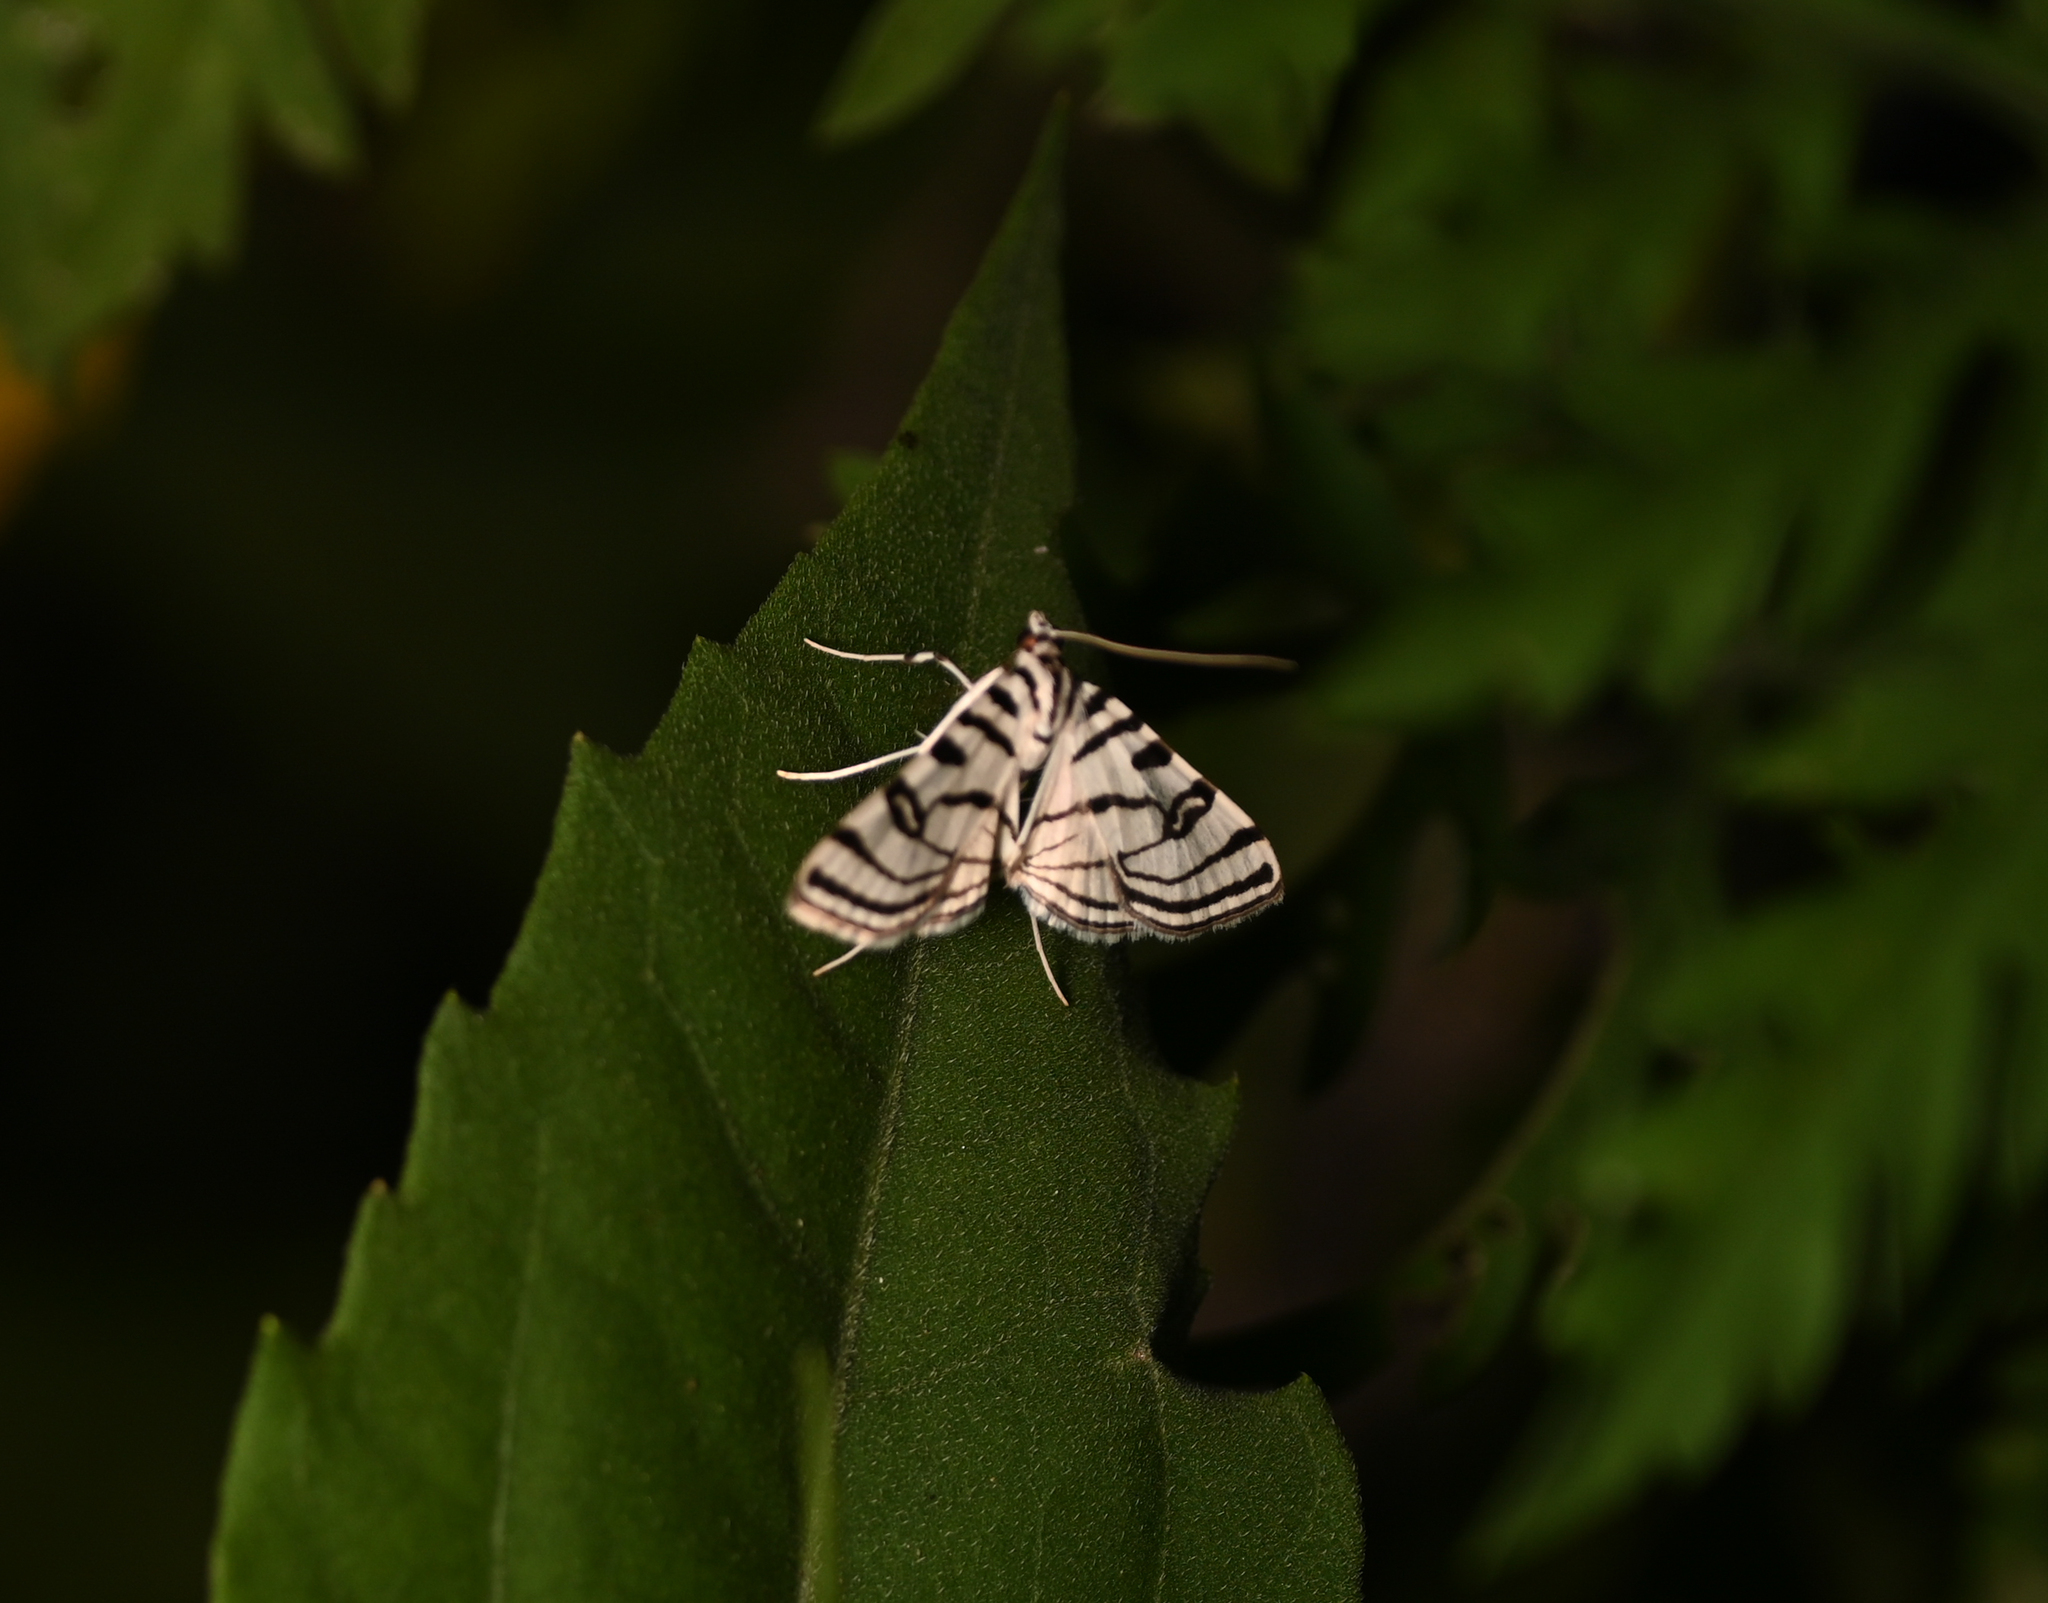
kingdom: Animalia
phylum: Arthropoda
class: Insecta
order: Lepidoptera
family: Crambidae
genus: Conchylodes
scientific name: Conchylodes ovulalis
